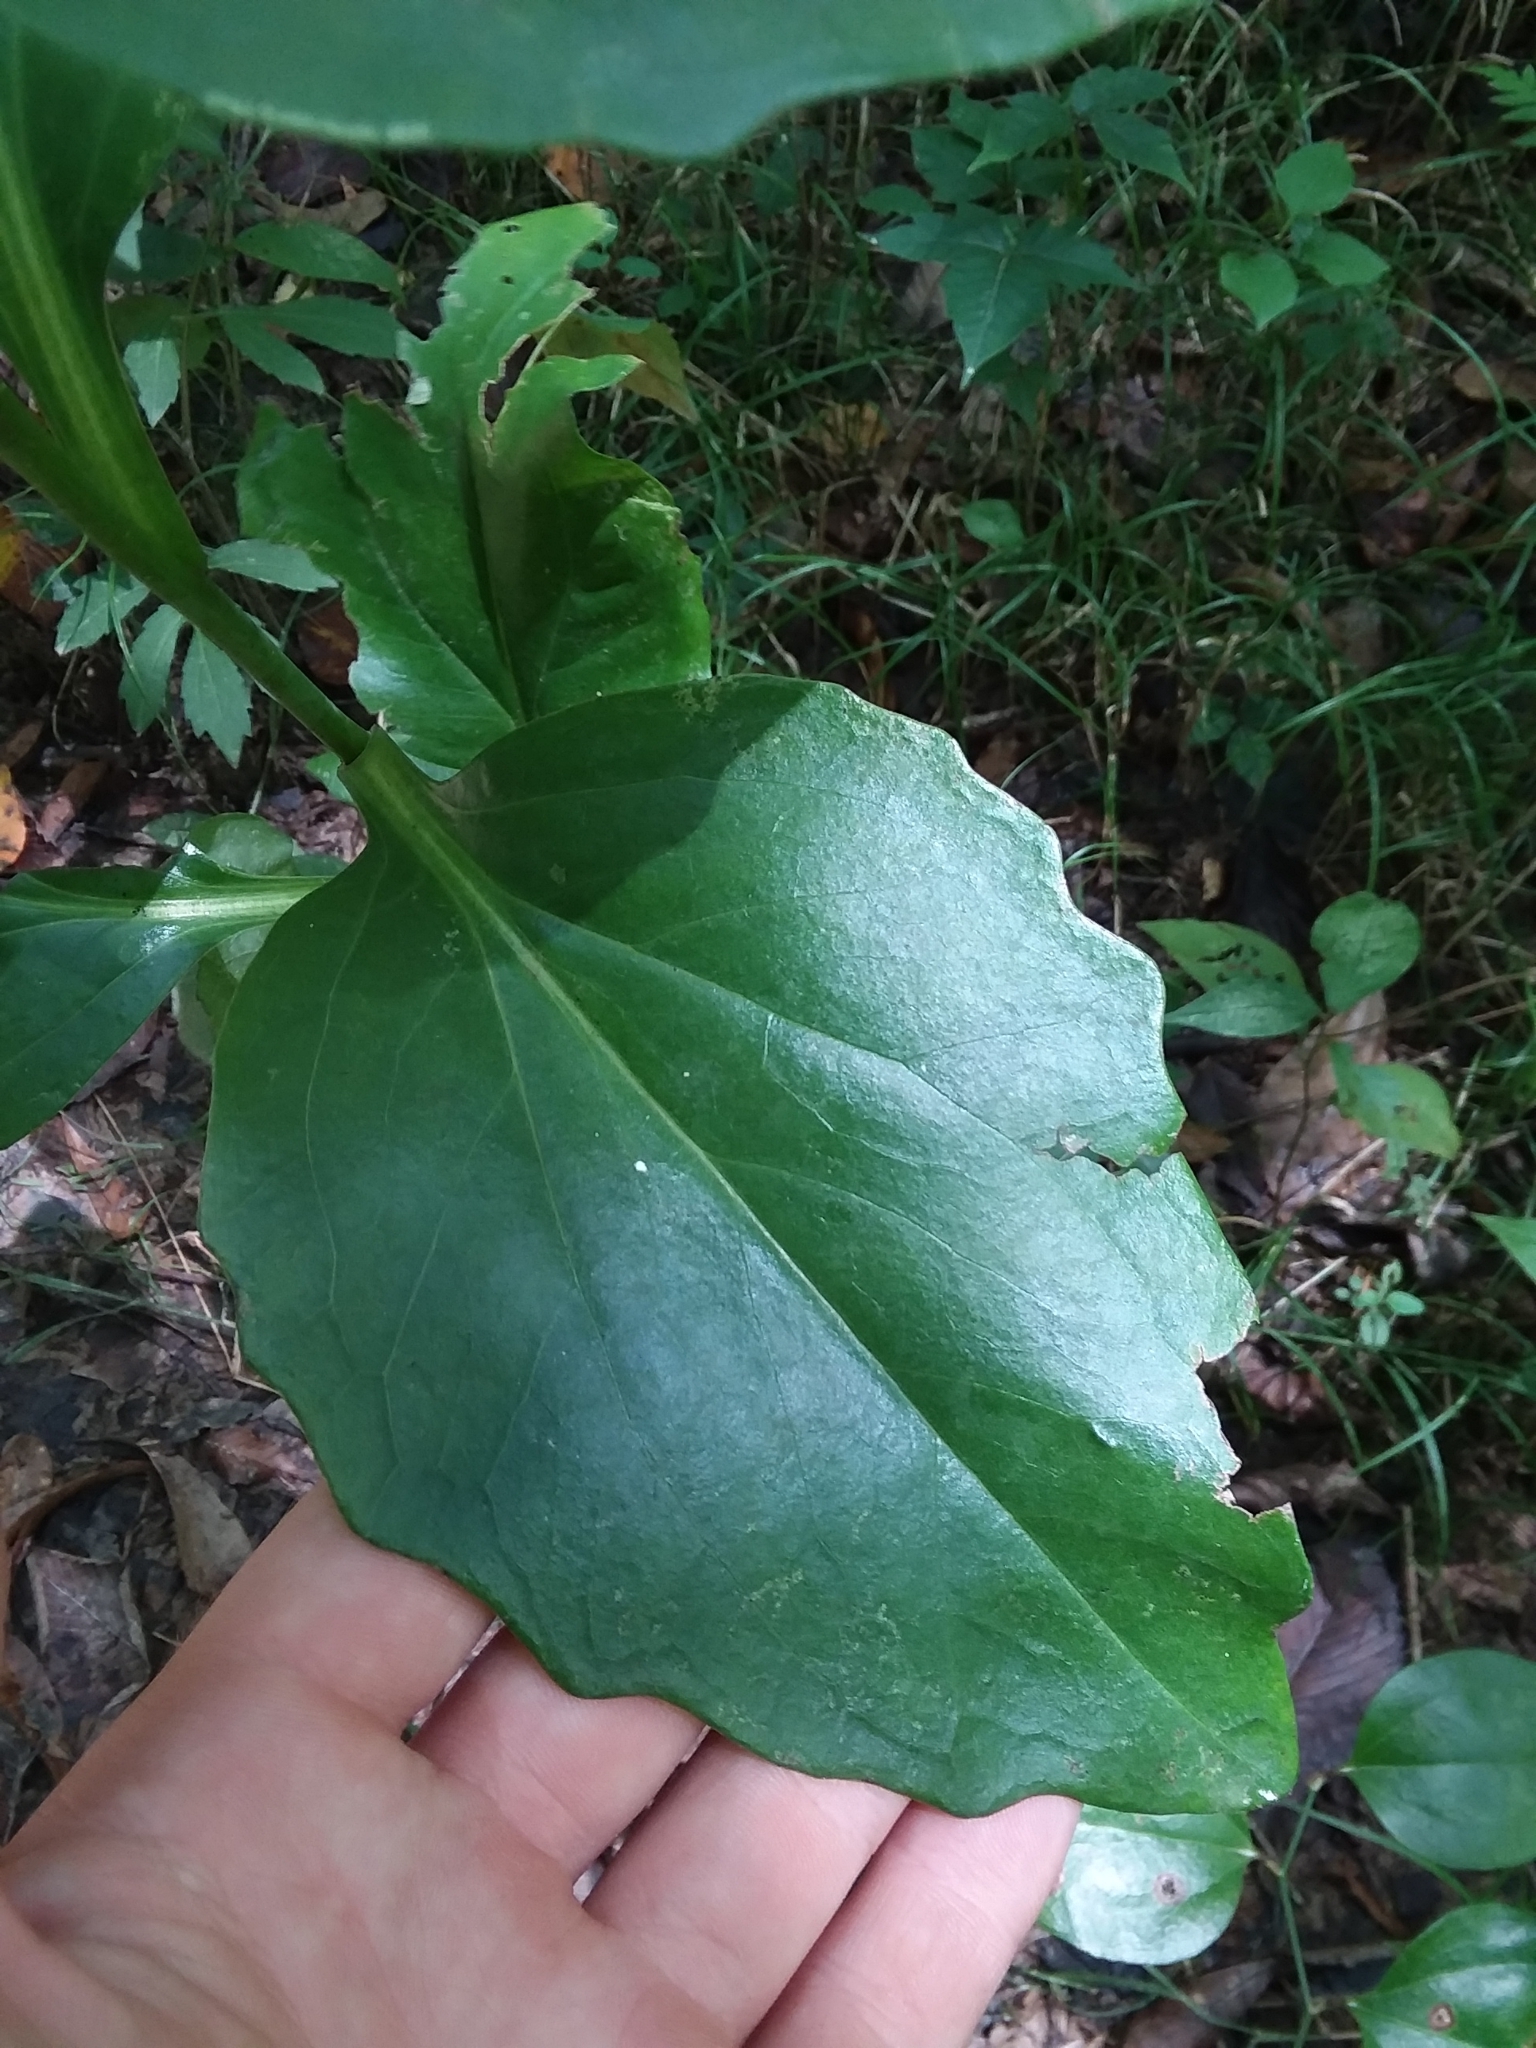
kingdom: Plantae
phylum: Tracheophyta
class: Magnoliopsida
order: Asterales
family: Asteraceae
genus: Arnoglossum
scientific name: Arnoglossum ovatum
